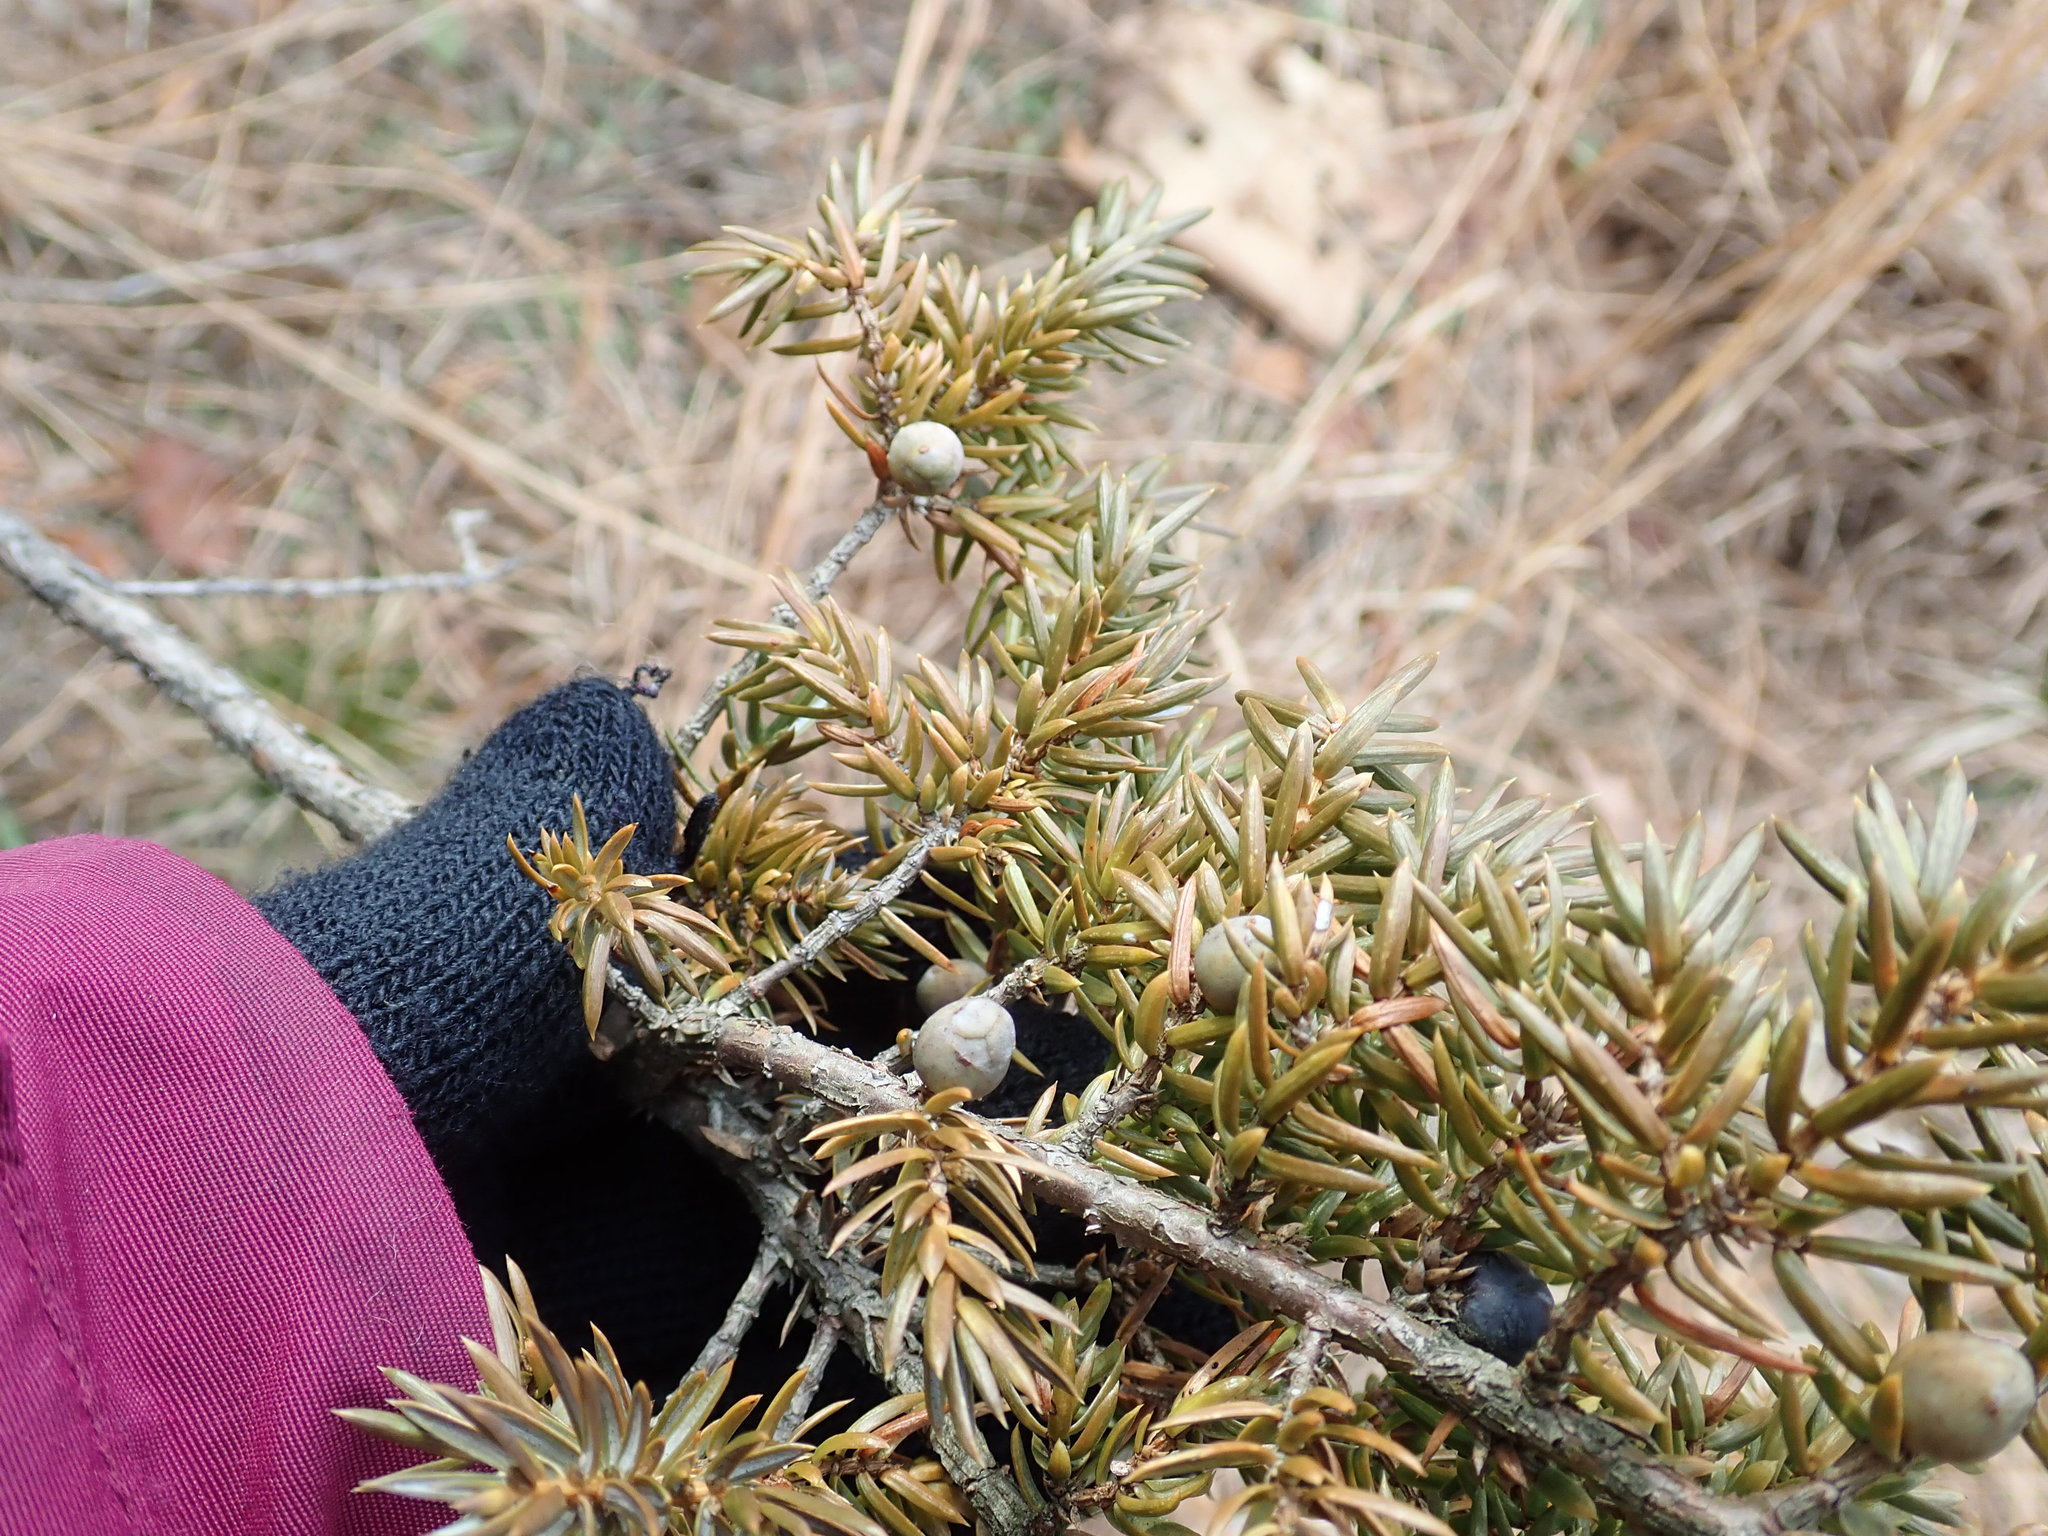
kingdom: Plantae
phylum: Tracheophyta
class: Pinopsida
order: Pinales
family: Cupressaceae
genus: Juniperus
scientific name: Juniperus communis
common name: Common juniper
